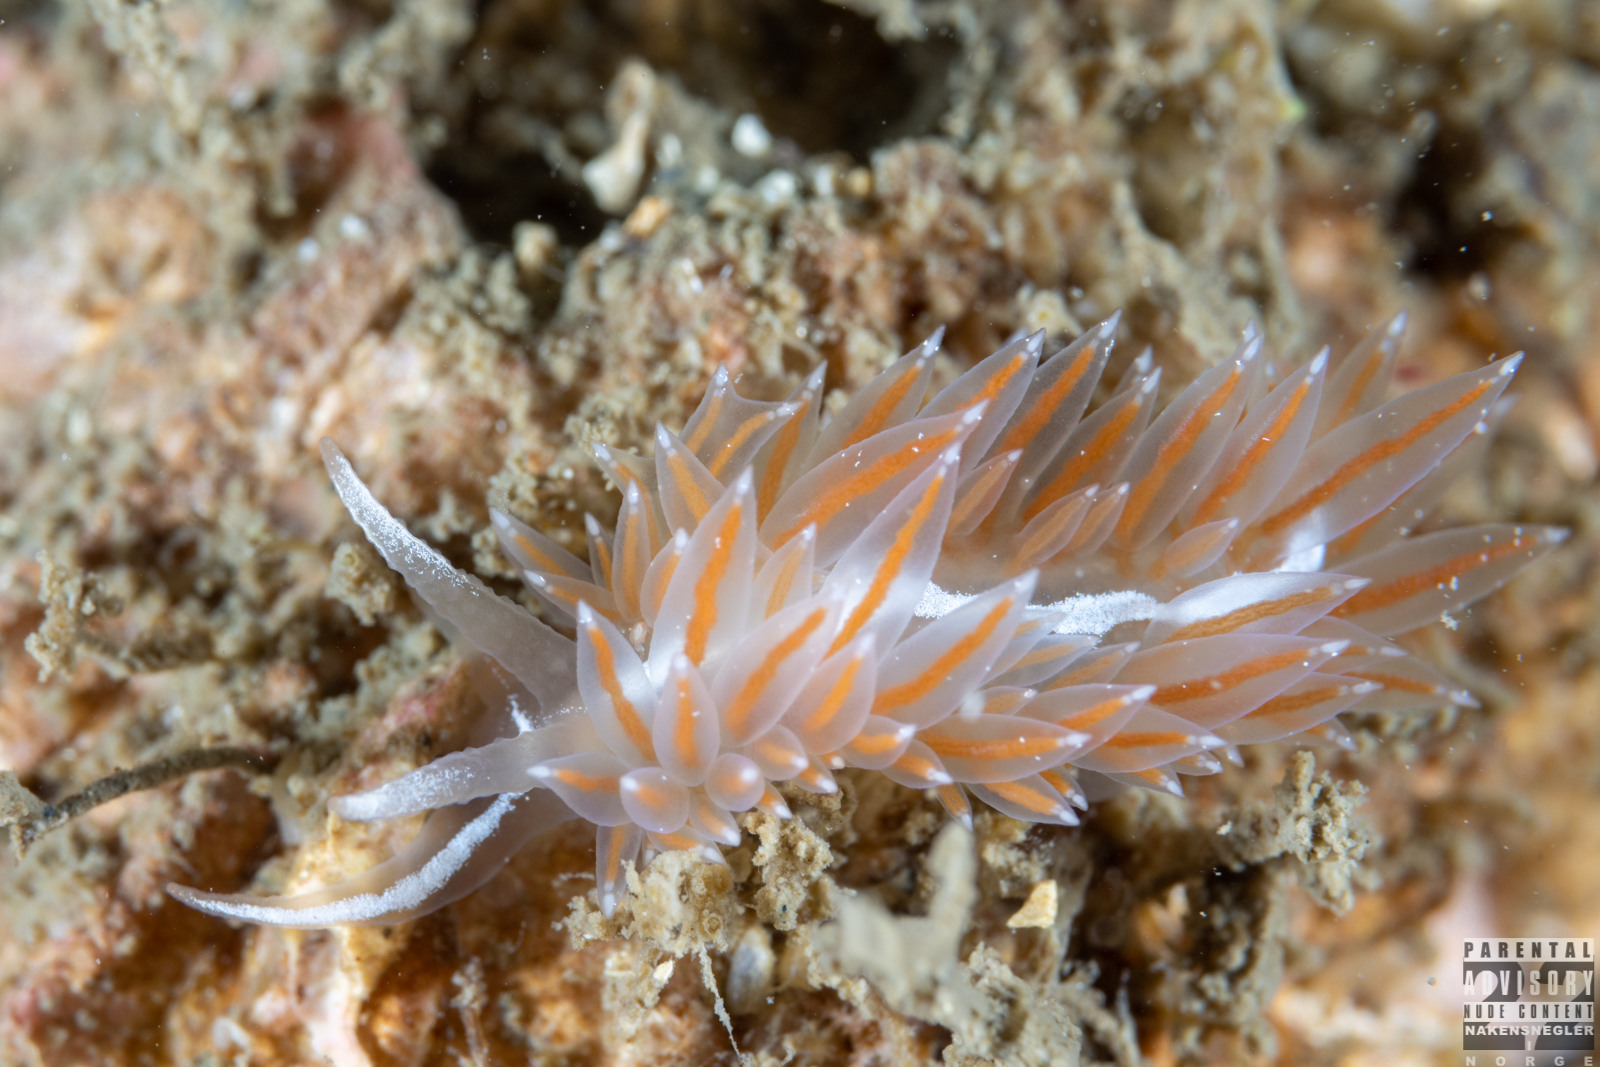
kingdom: Animalia
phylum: Mollusca
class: Gastropoda
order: Nudibranchia
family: Coryphellidae
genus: Coryphella
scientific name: Coryphella monicae
